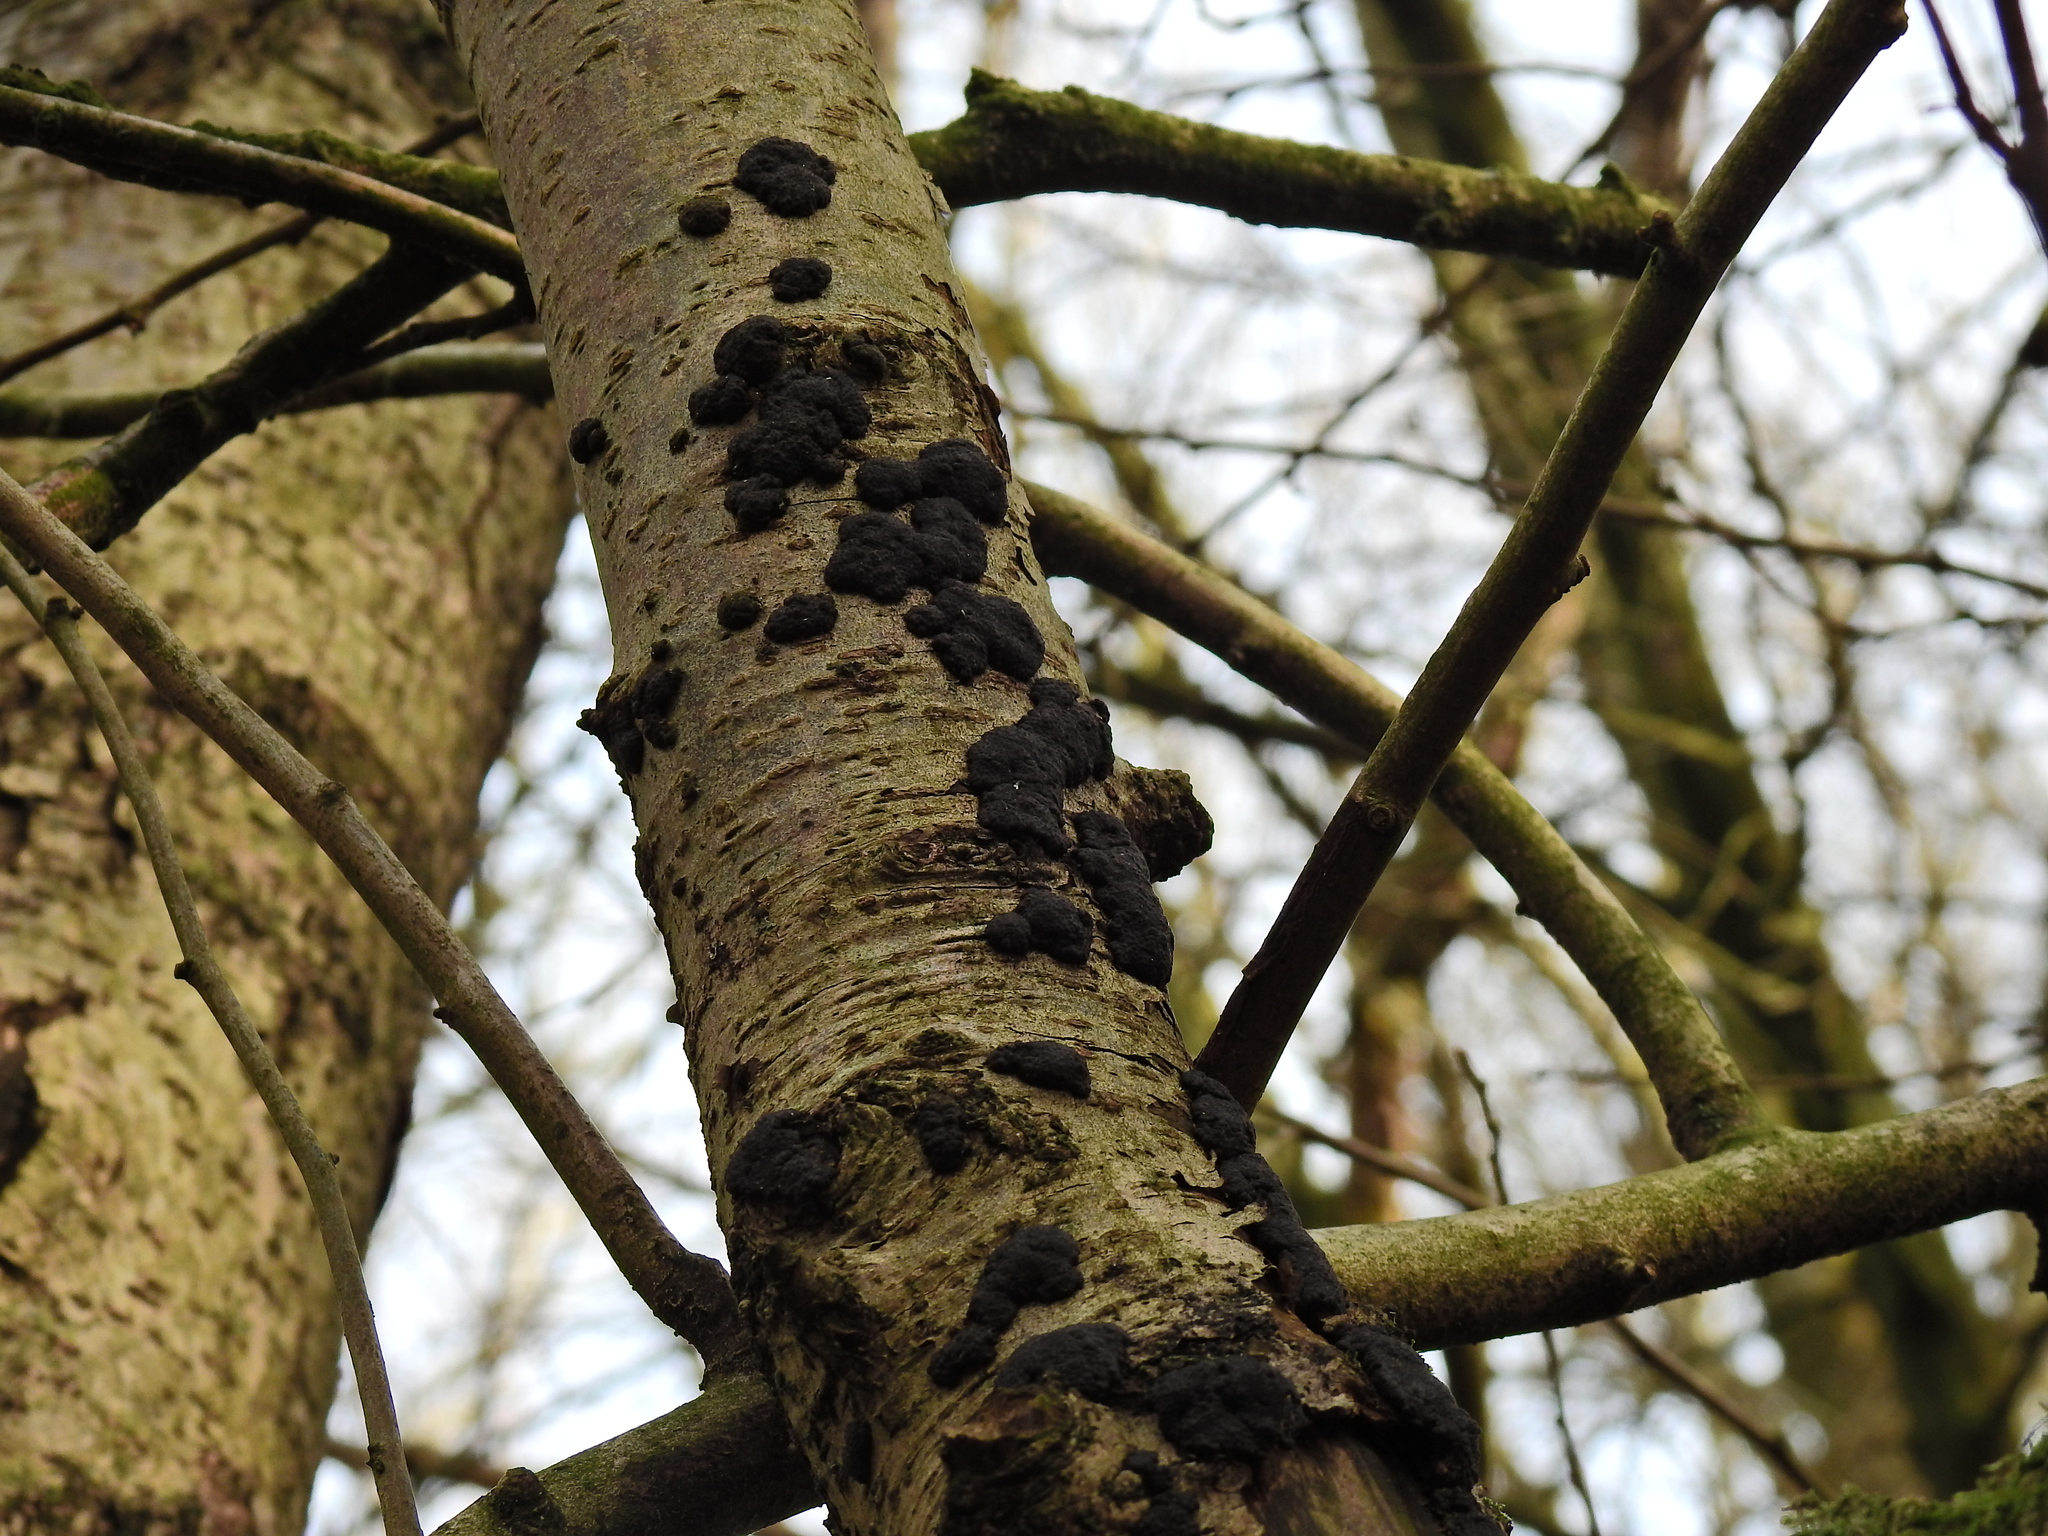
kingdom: Fungi
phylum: Ascomycota
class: Sordariomycetes
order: Xylariales
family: Hypoxylaceae
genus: Jackrogersella
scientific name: Jackrogersella multiformis
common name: Birch woodwart
